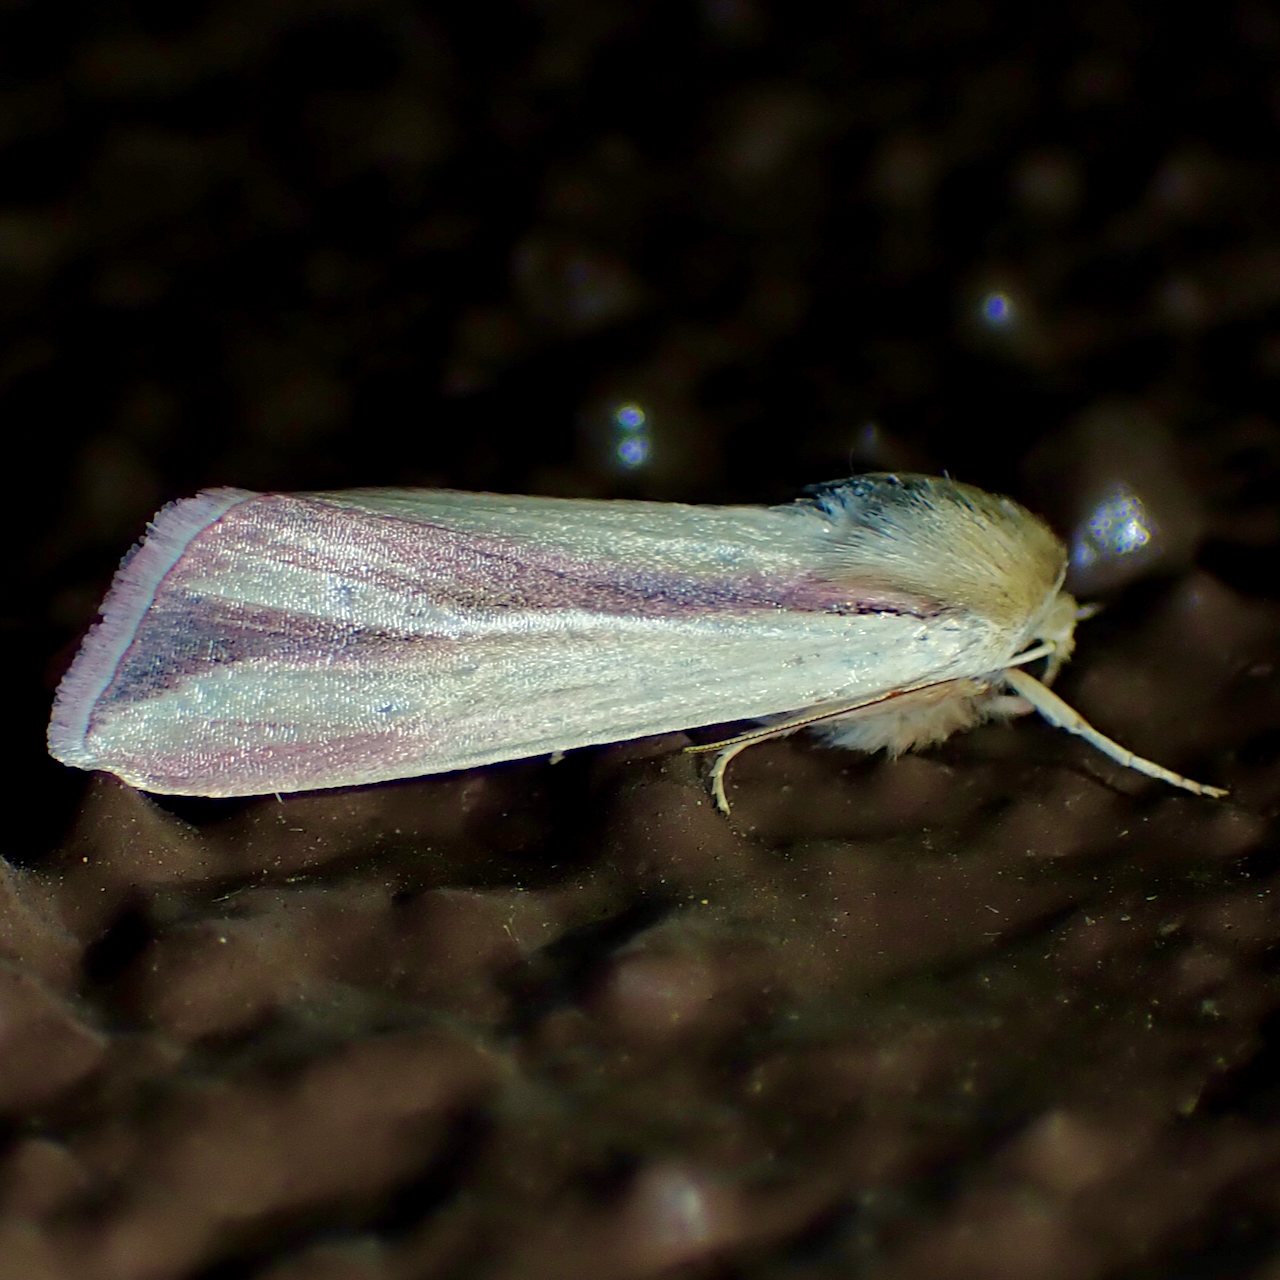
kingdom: Animalia
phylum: Arthropoda
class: Insecta
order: Lepidoptera
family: Noctuidae
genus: Dargida
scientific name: Dargida rubripennis
